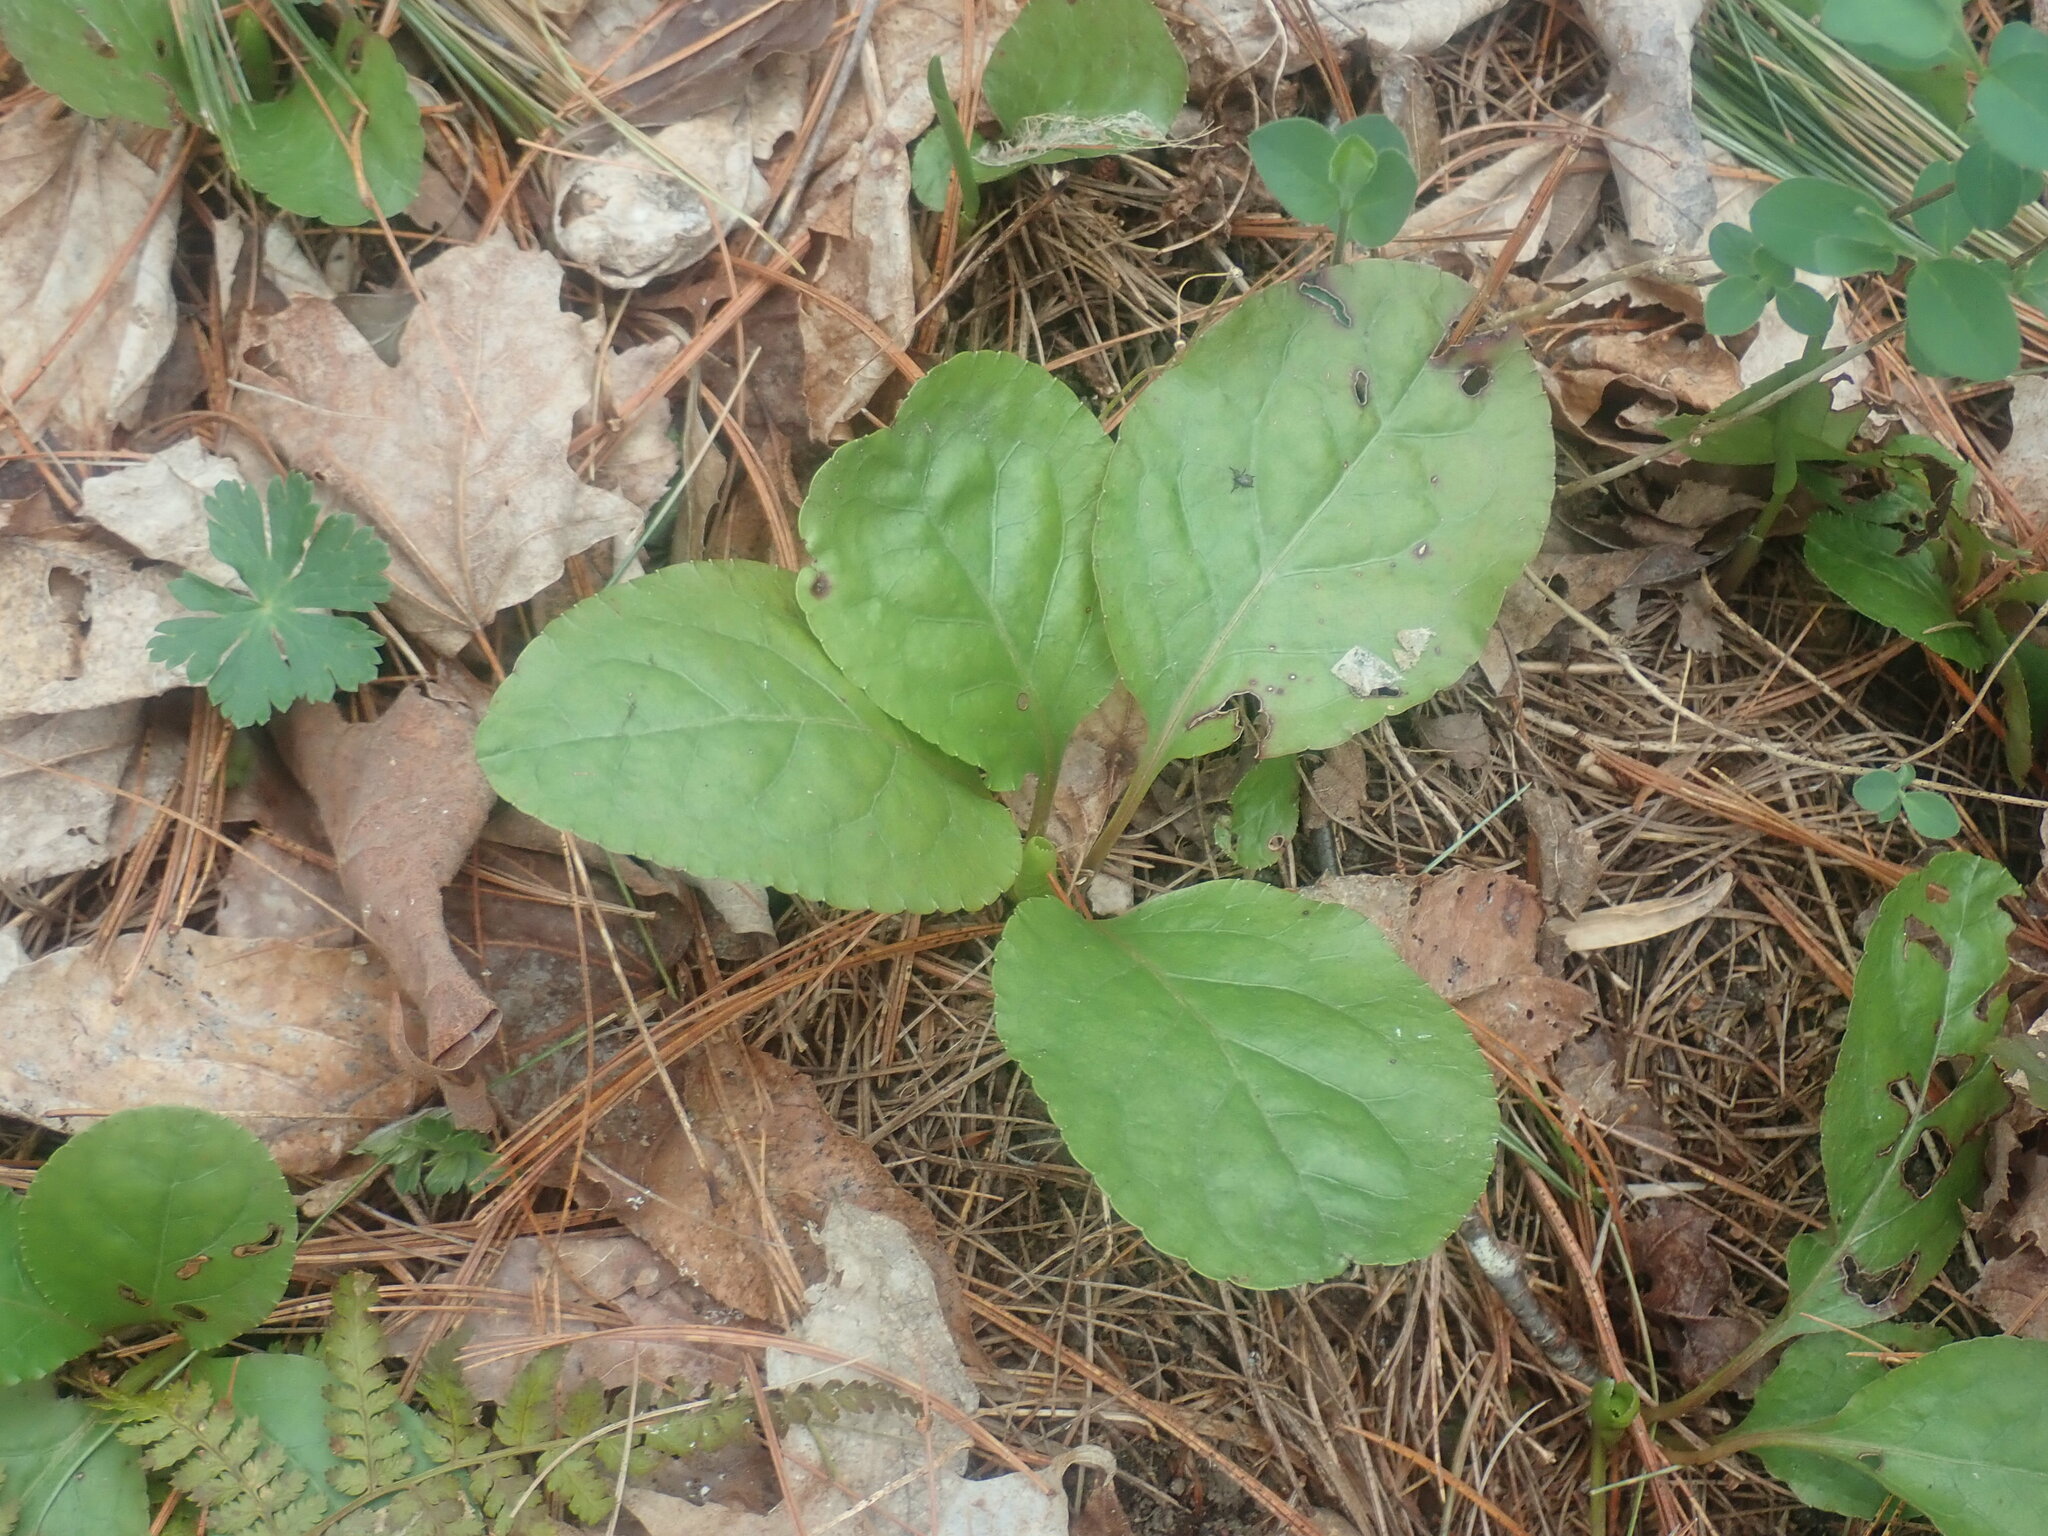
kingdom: Plantae
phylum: Tracheophyta
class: Magnoliopsida
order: Ericales
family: Ericaceae
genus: Pyrola
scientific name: Pyrola elliptica
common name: Shinleaf
